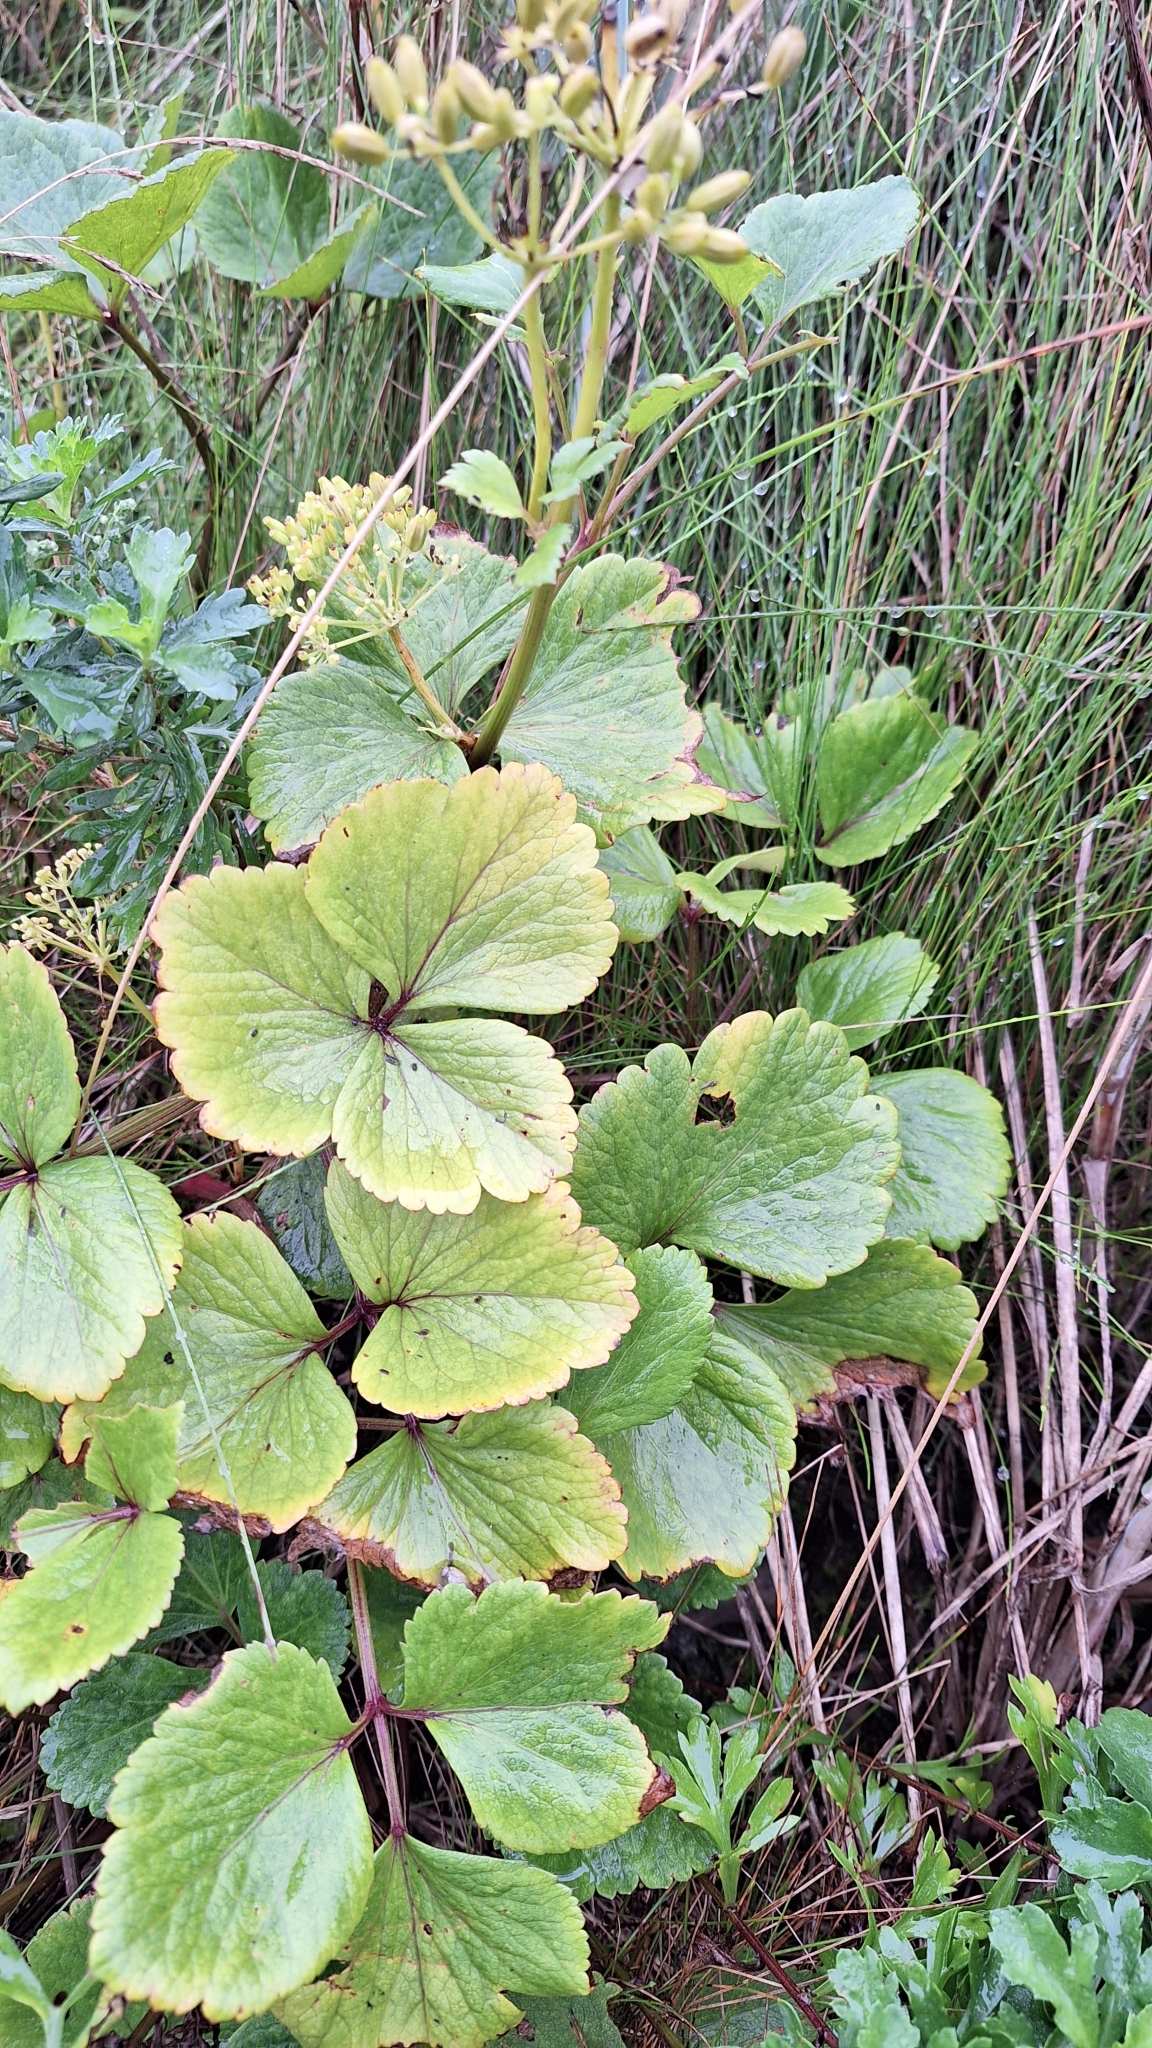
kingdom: Plantae
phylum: Tracheophyta
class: Magnoliopsida
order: Apiales
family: Apiaceae
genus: Ligusticum
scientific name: Ligusticum scothicum
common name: Beach lovage
